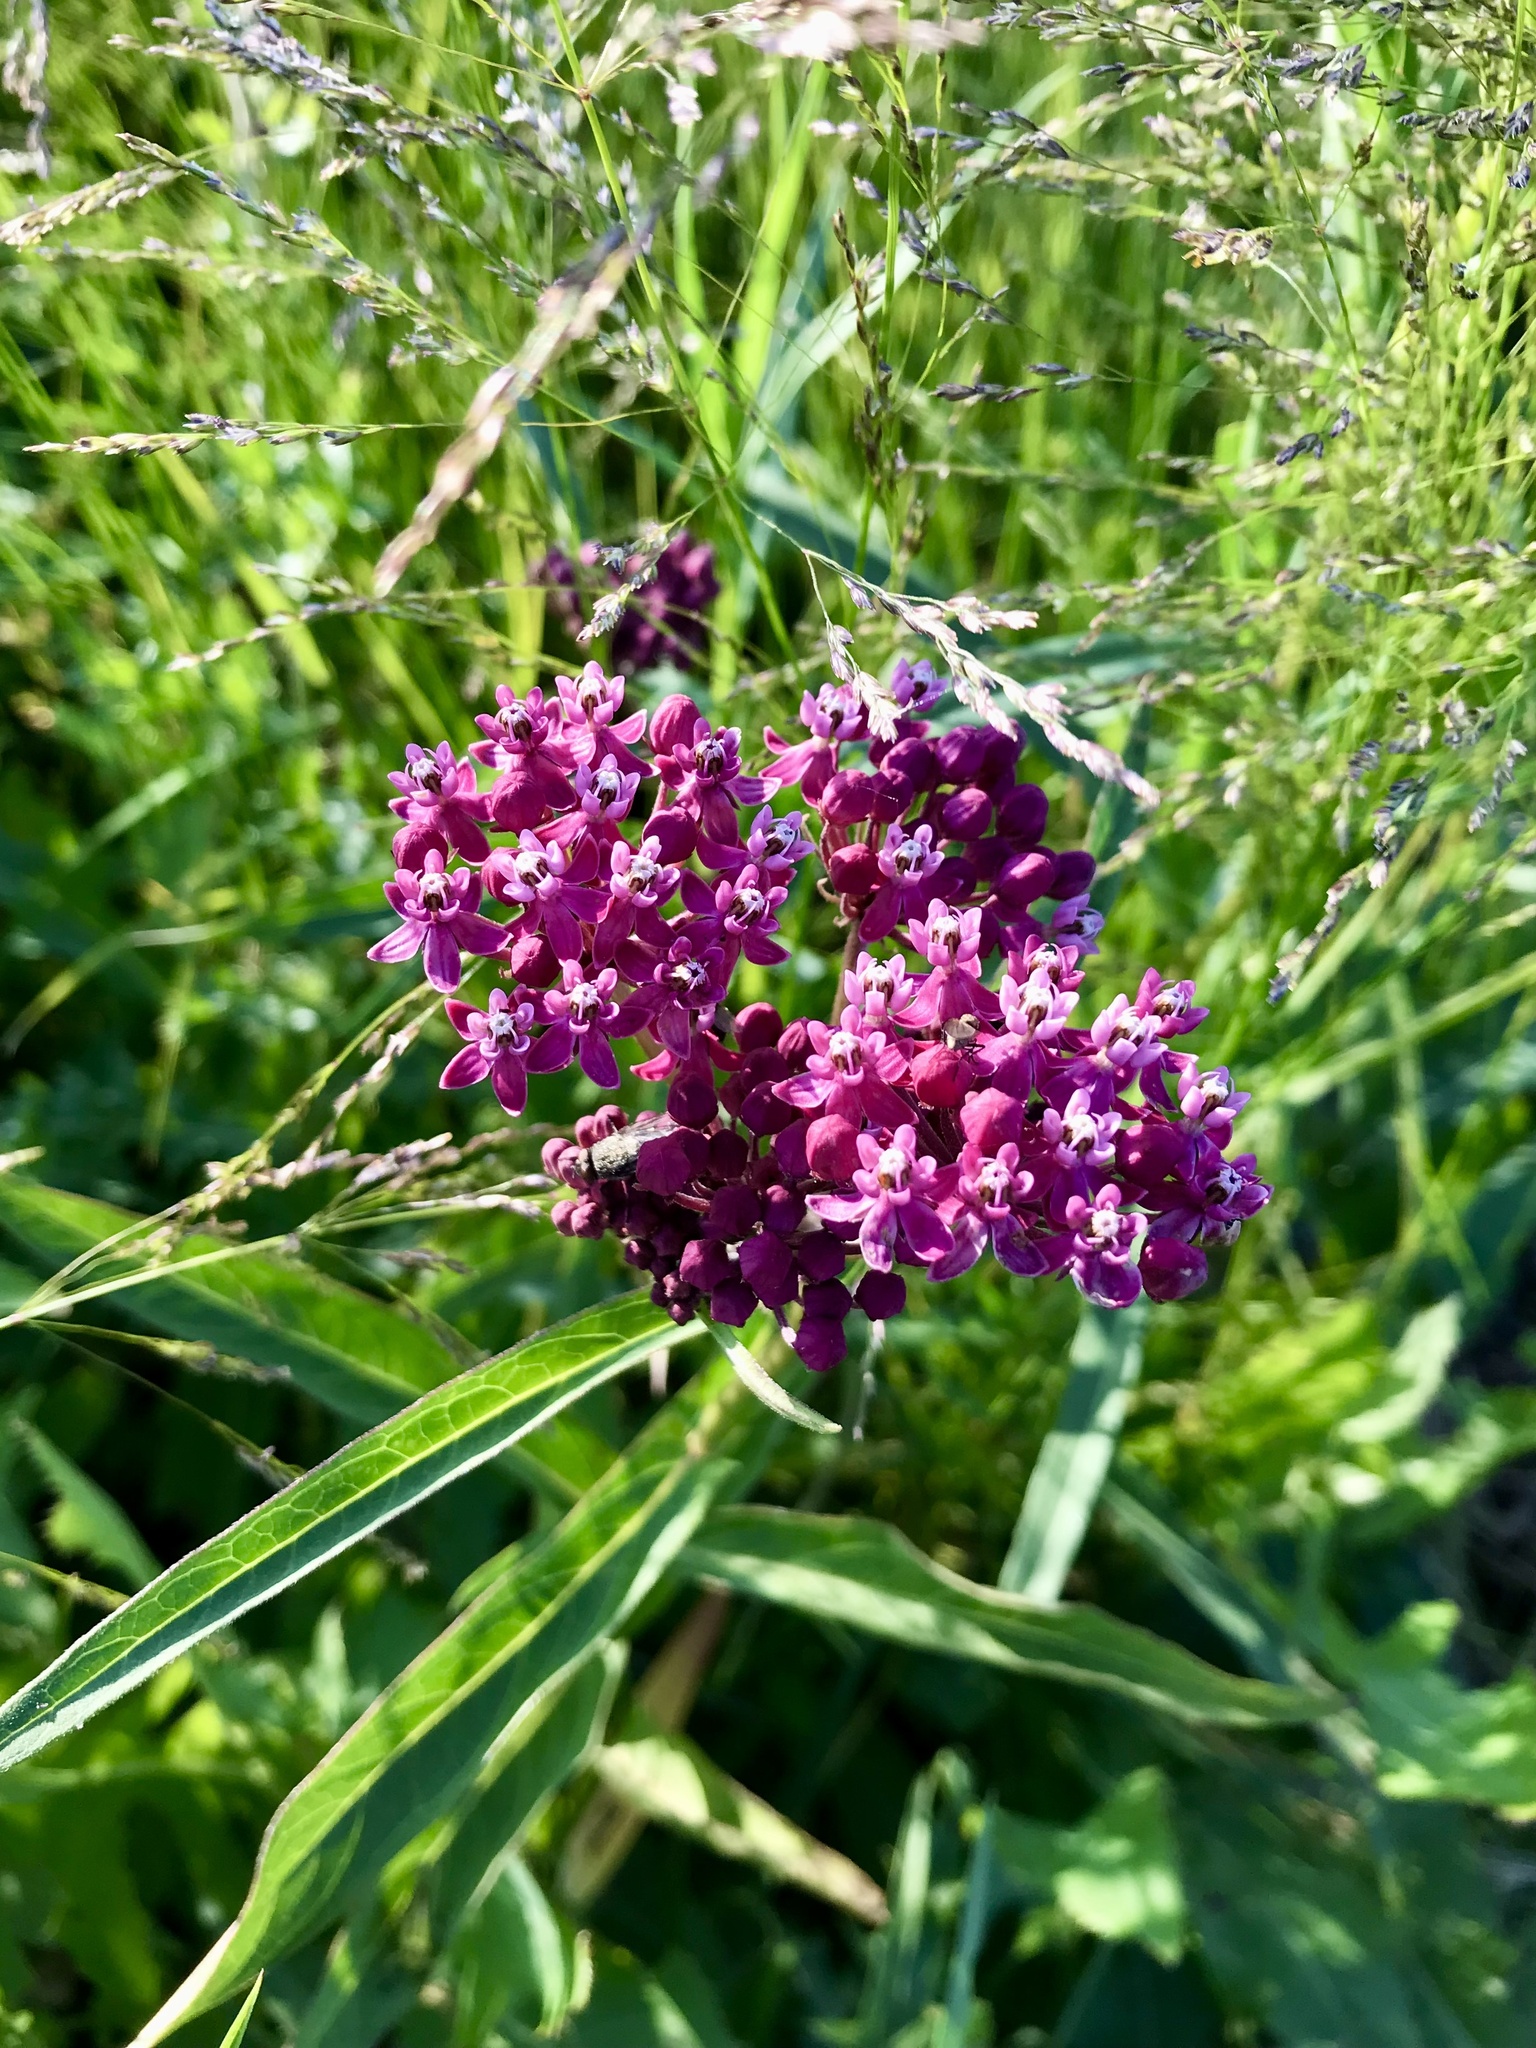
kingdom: Plantae
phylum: Tracheophyta
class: Magnoliopsida
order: Gentianales
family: Apocynaceae
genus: Asclepias
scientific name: Asclepias incarnata
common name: Swamp milkweed
